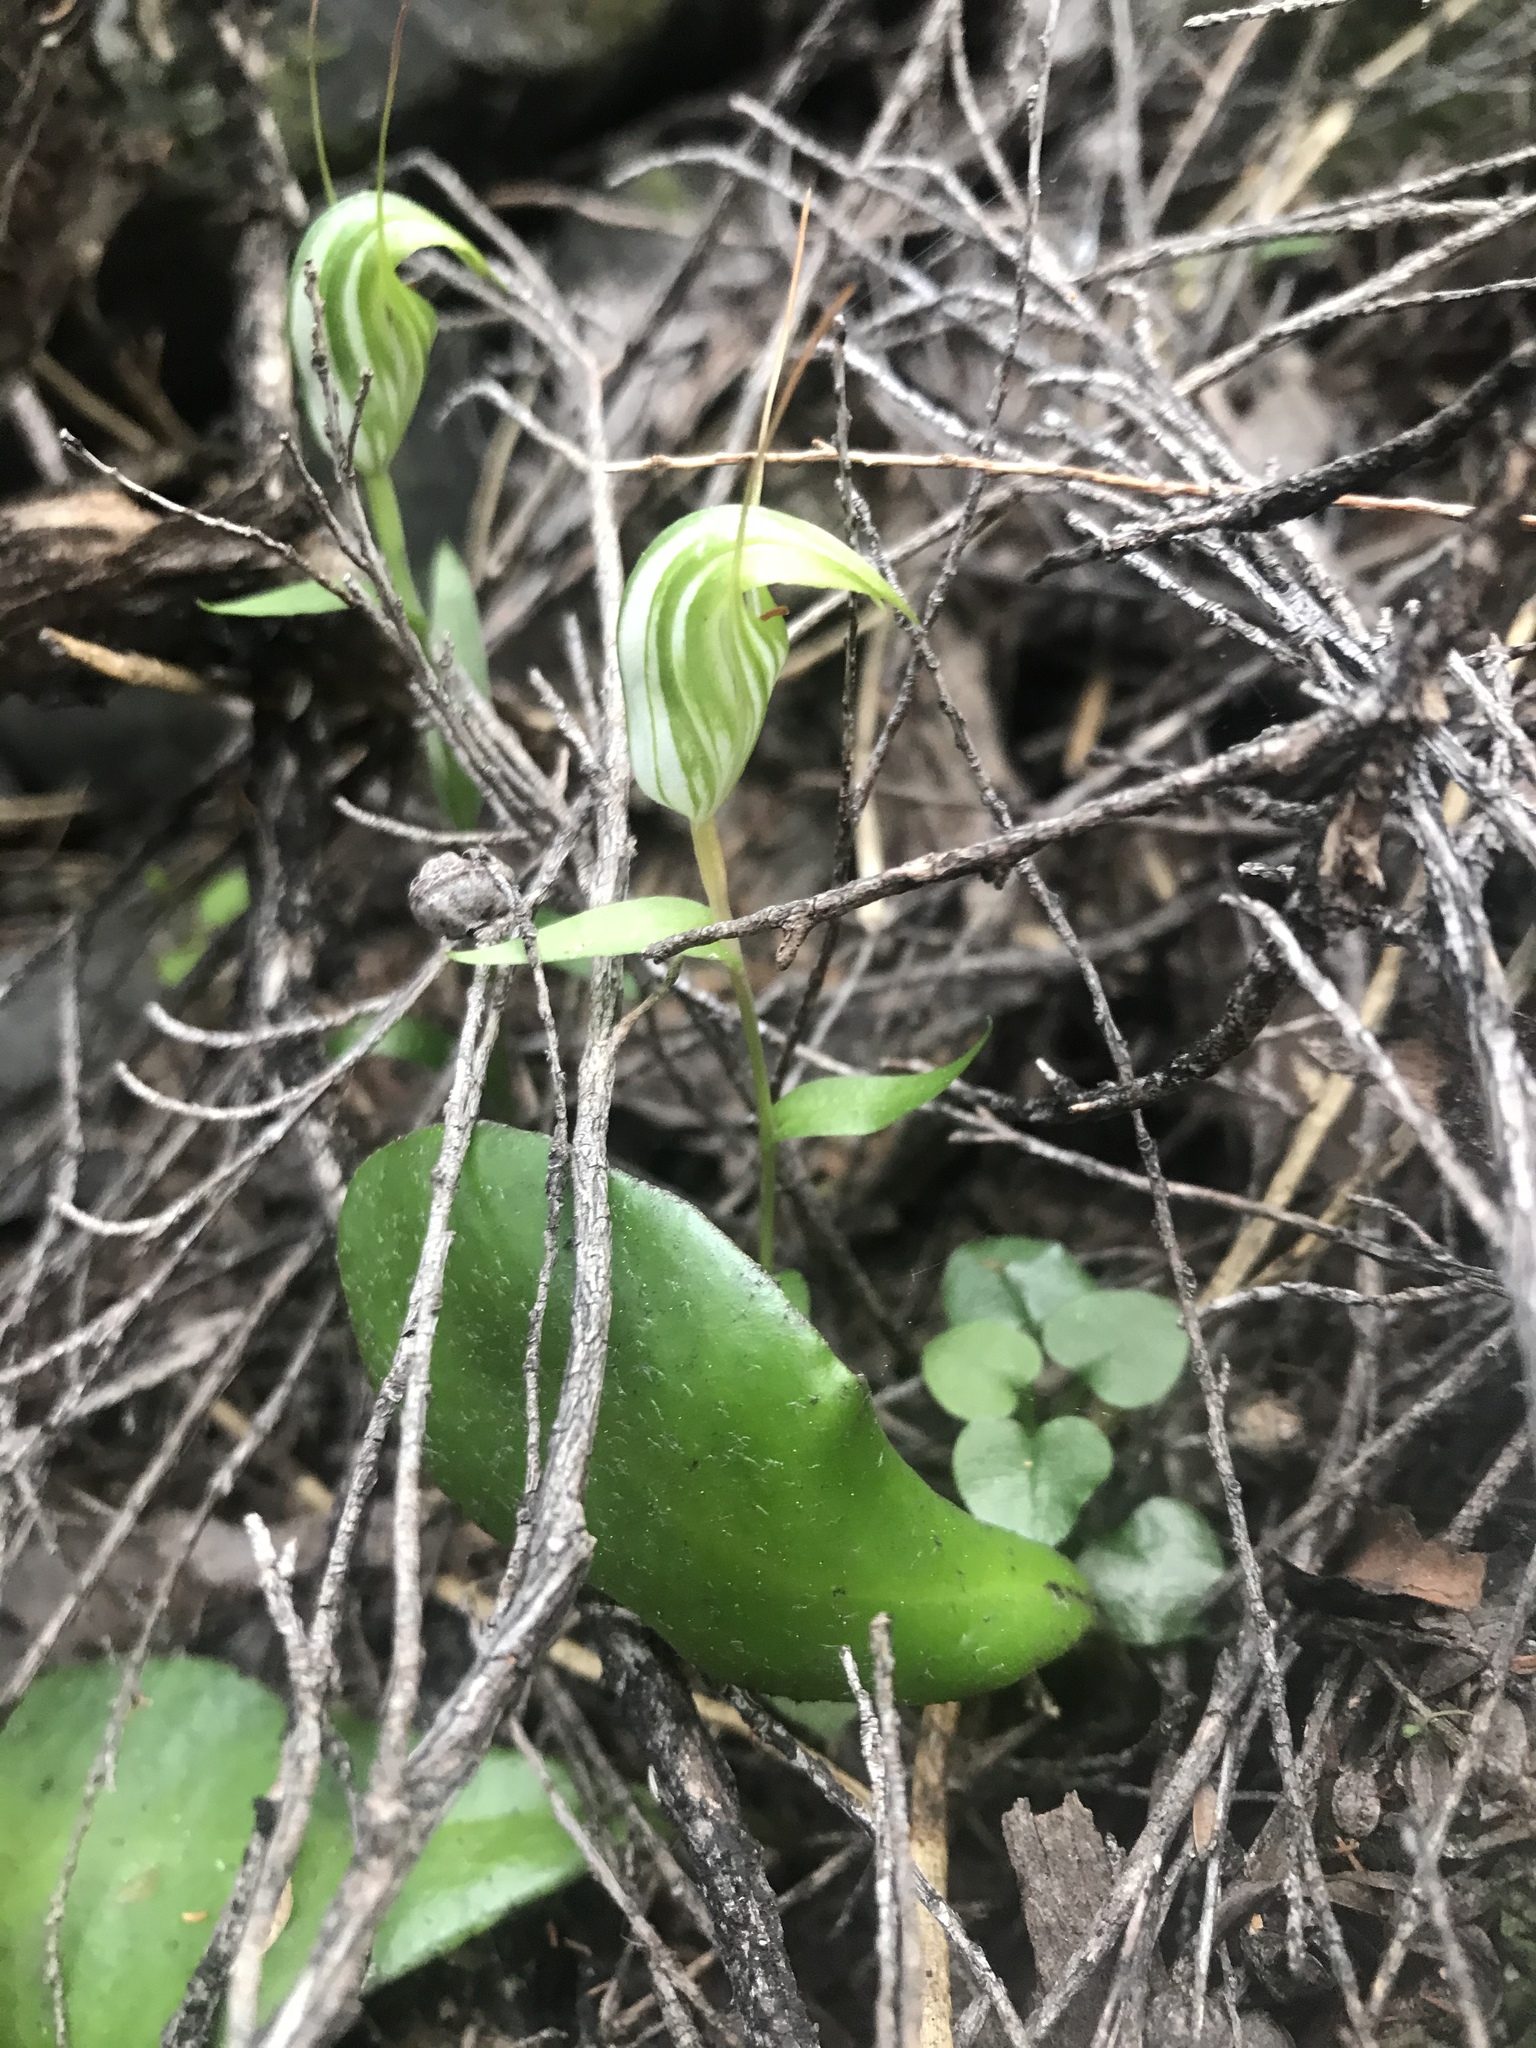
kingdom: Plantae
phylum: Tracheophyta
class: Liliopsida
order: Asparagales
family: Orchidaceae
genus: Pterostylis
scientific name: Pterostylis alobula
